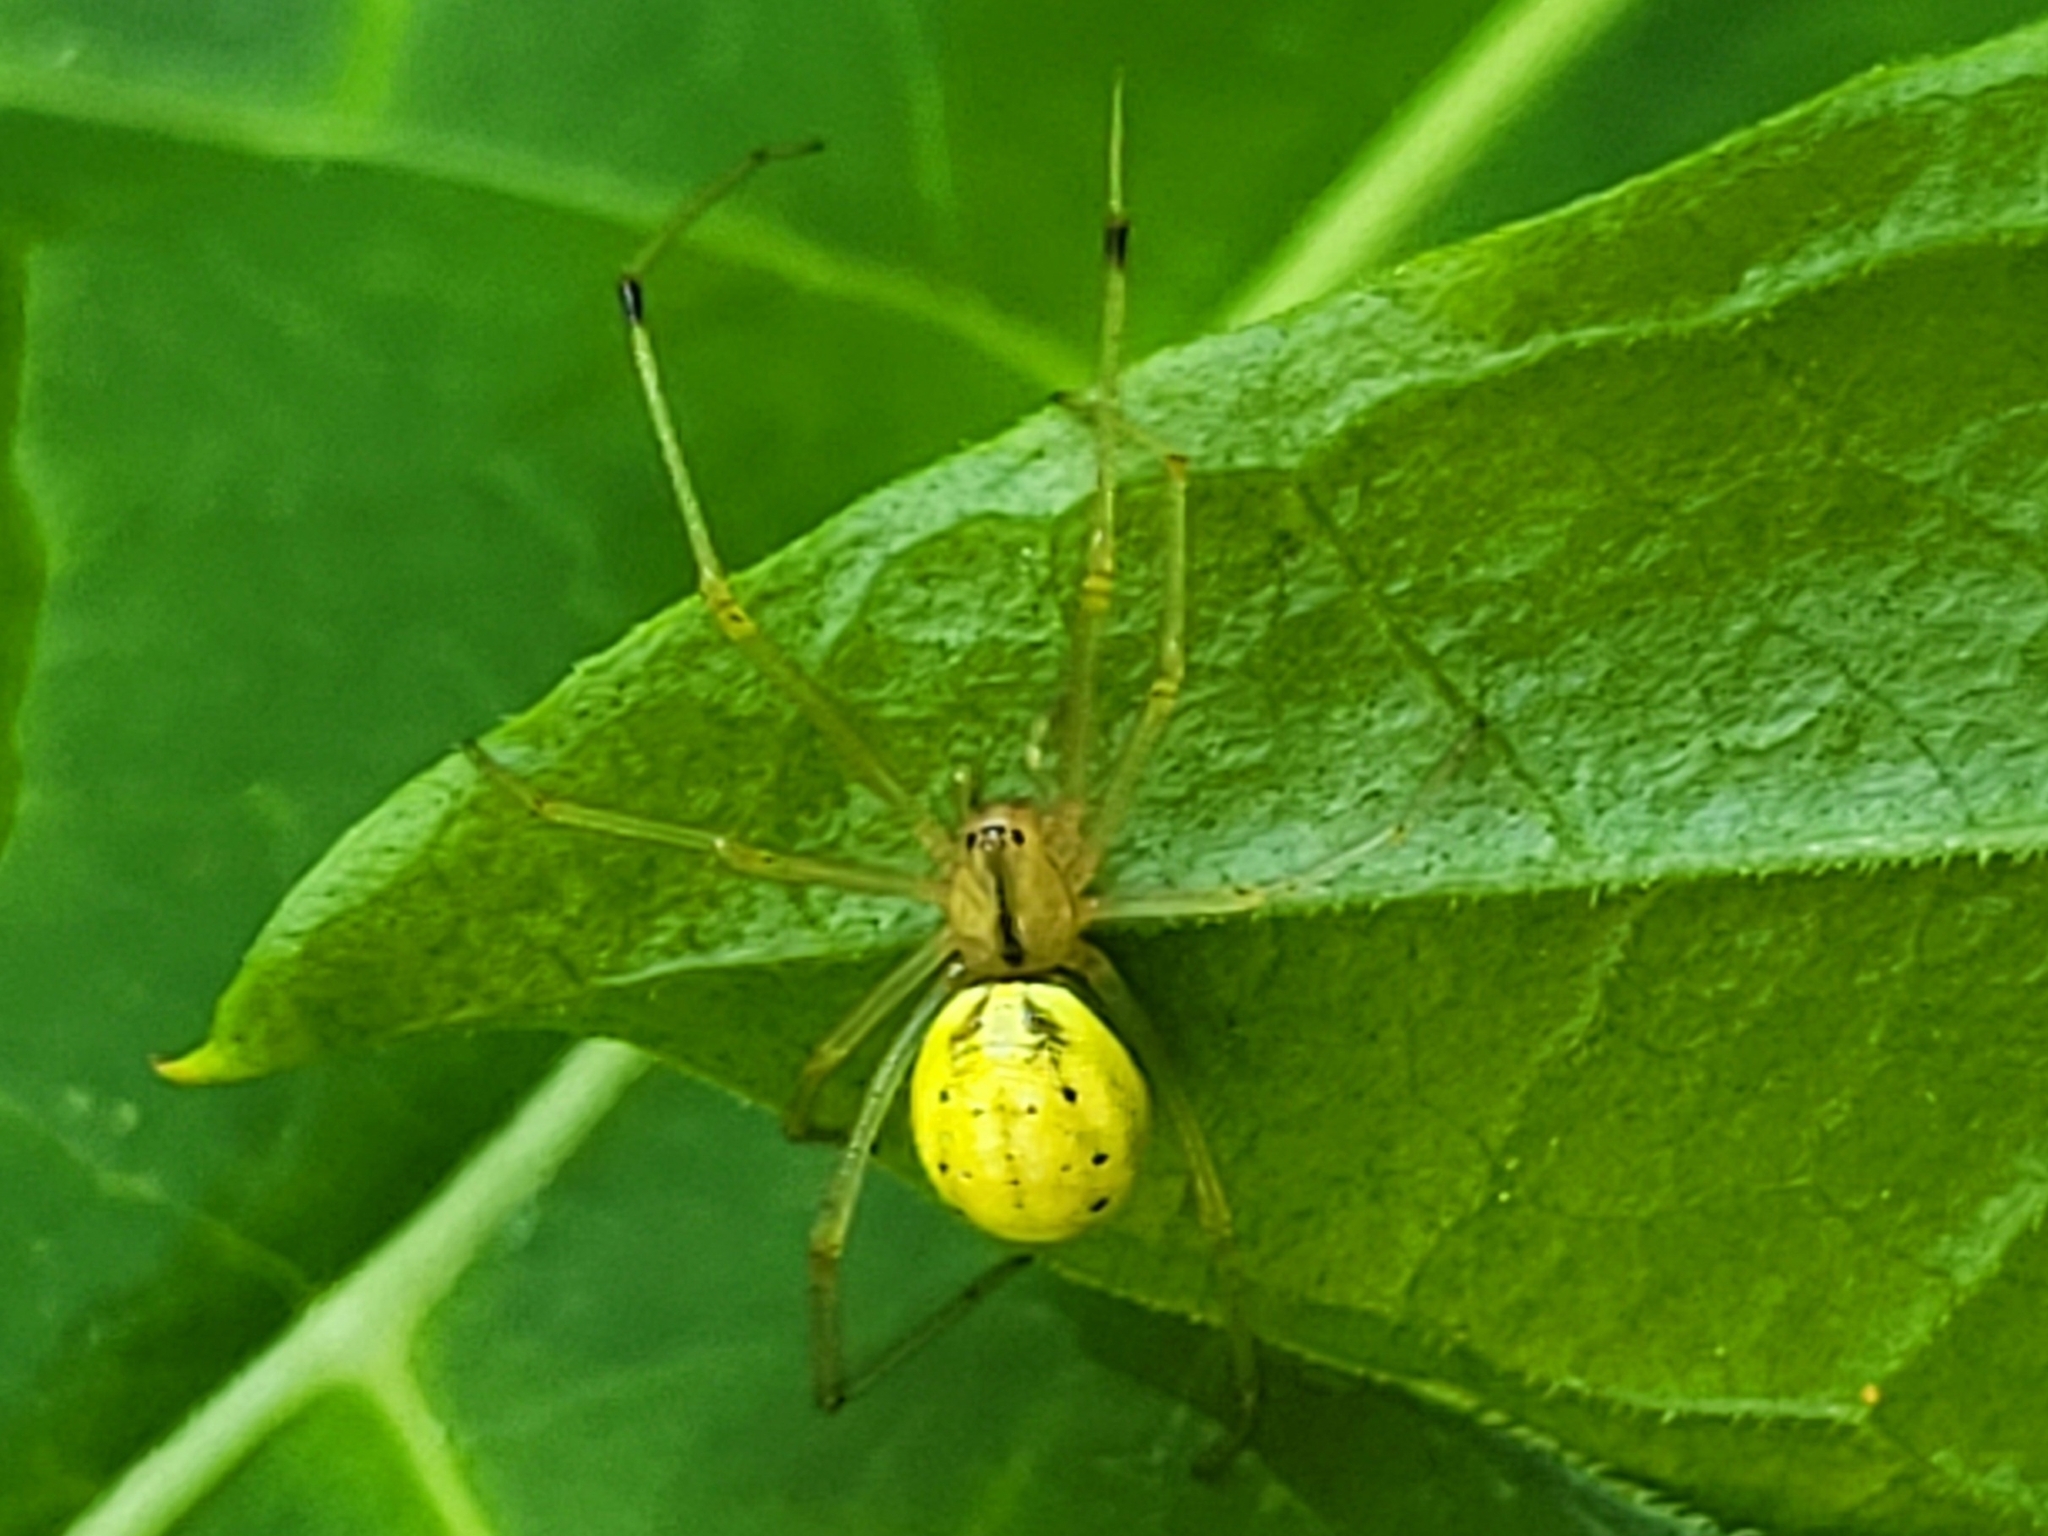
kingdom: Animalia
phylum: Arthropoda
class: Arachnida
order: Araneae
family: Theridiidae
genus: Enoplognatha
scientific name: Enoplognatha ovata
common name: Common candy-striped spider
